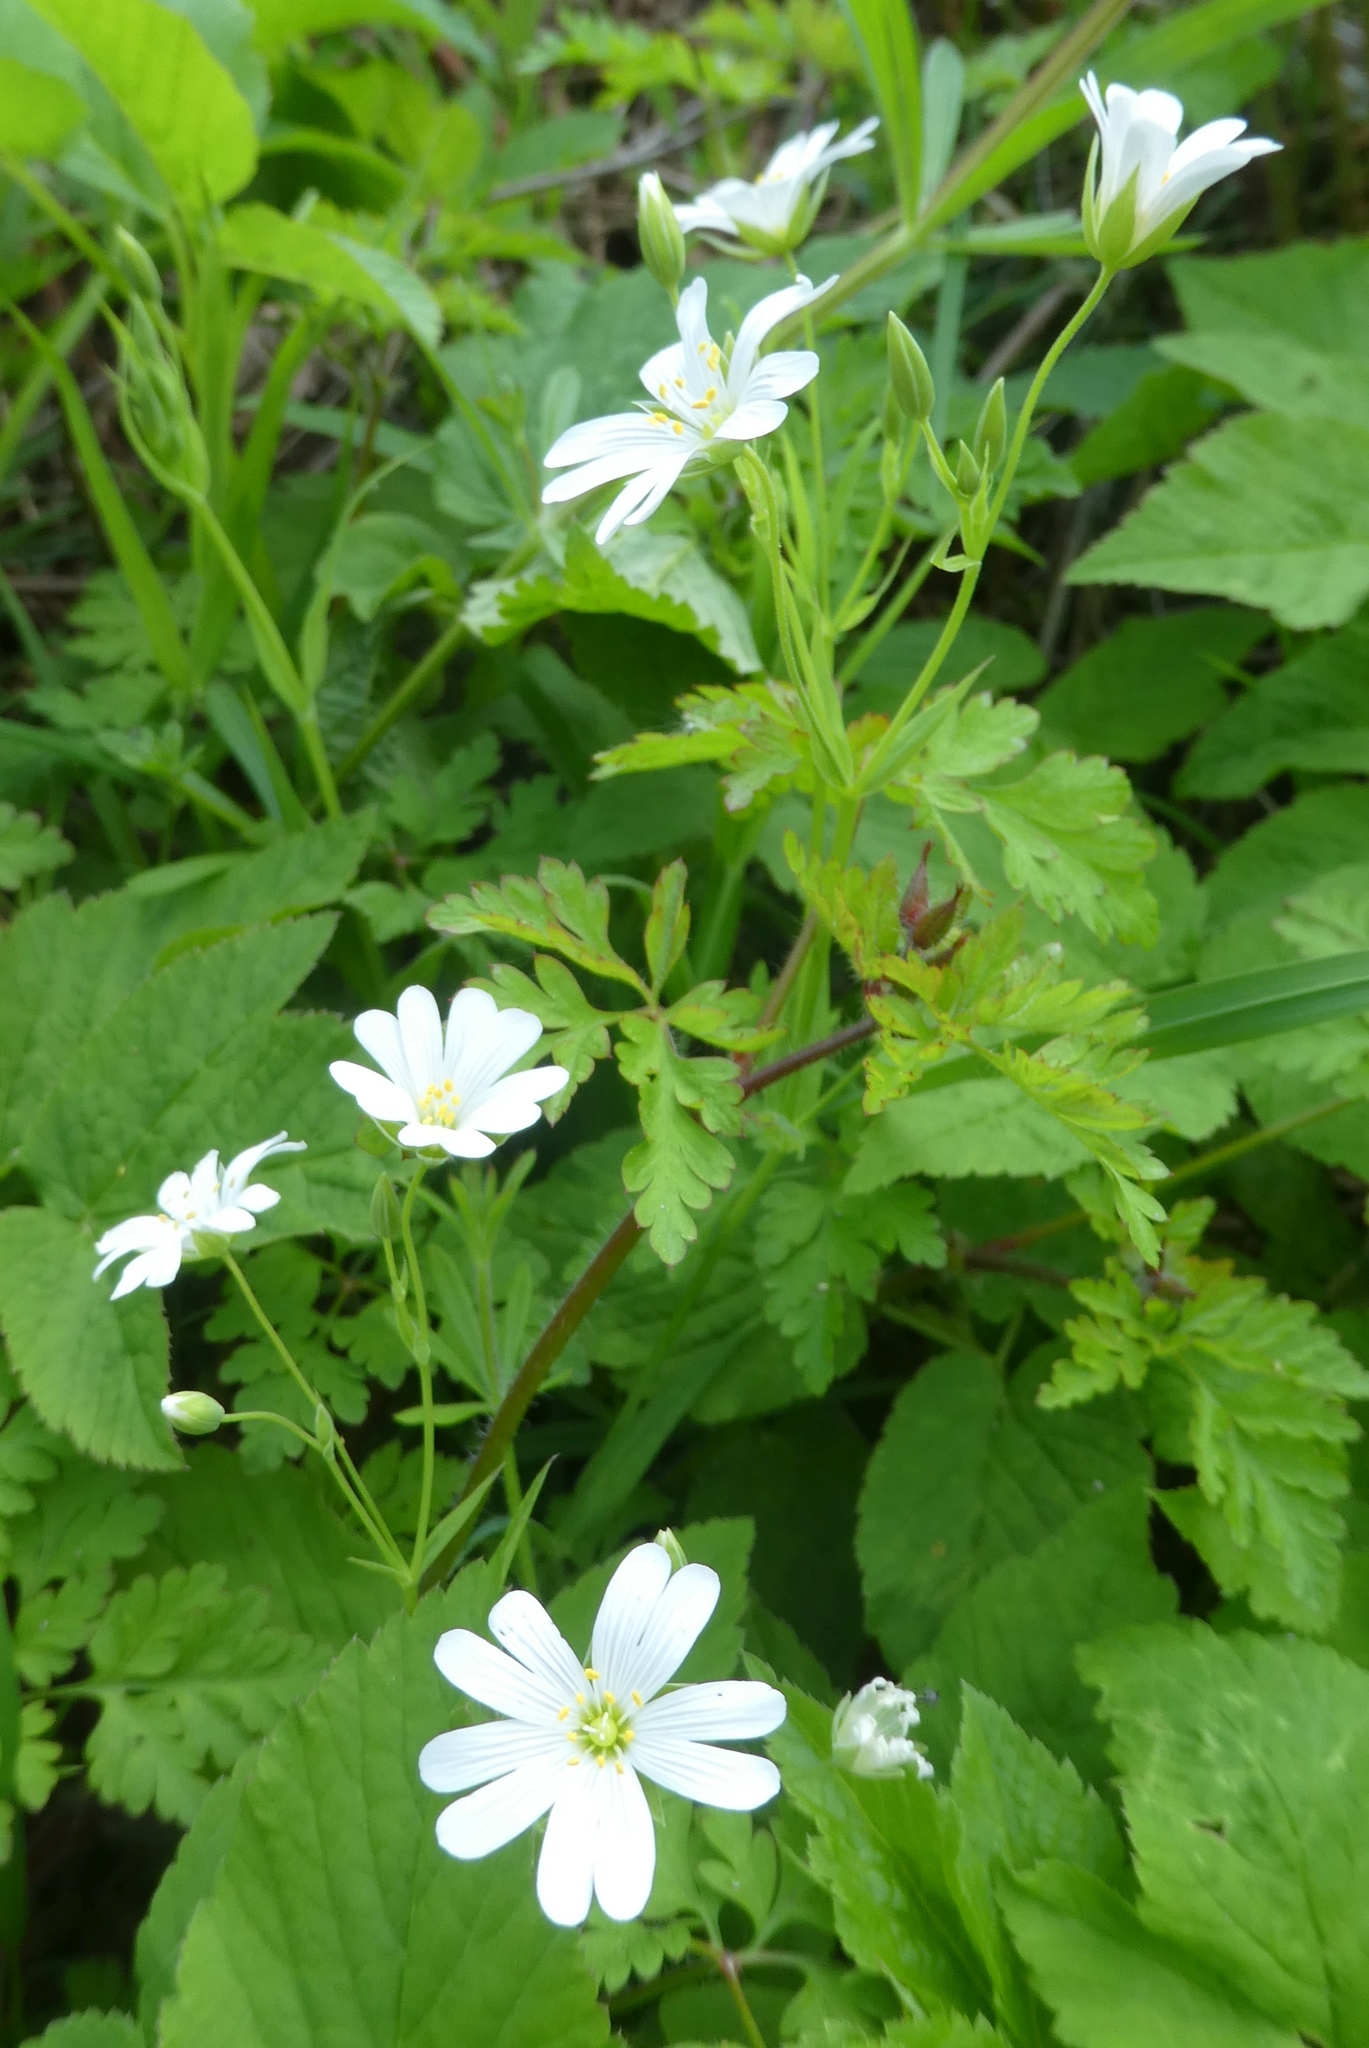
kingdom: Plantae
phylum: Tracheophyta
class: Magnoliopsida
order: Caryophyllales
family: Caryophyllaceae
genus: Rabelera
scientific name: Rabelera holostea
